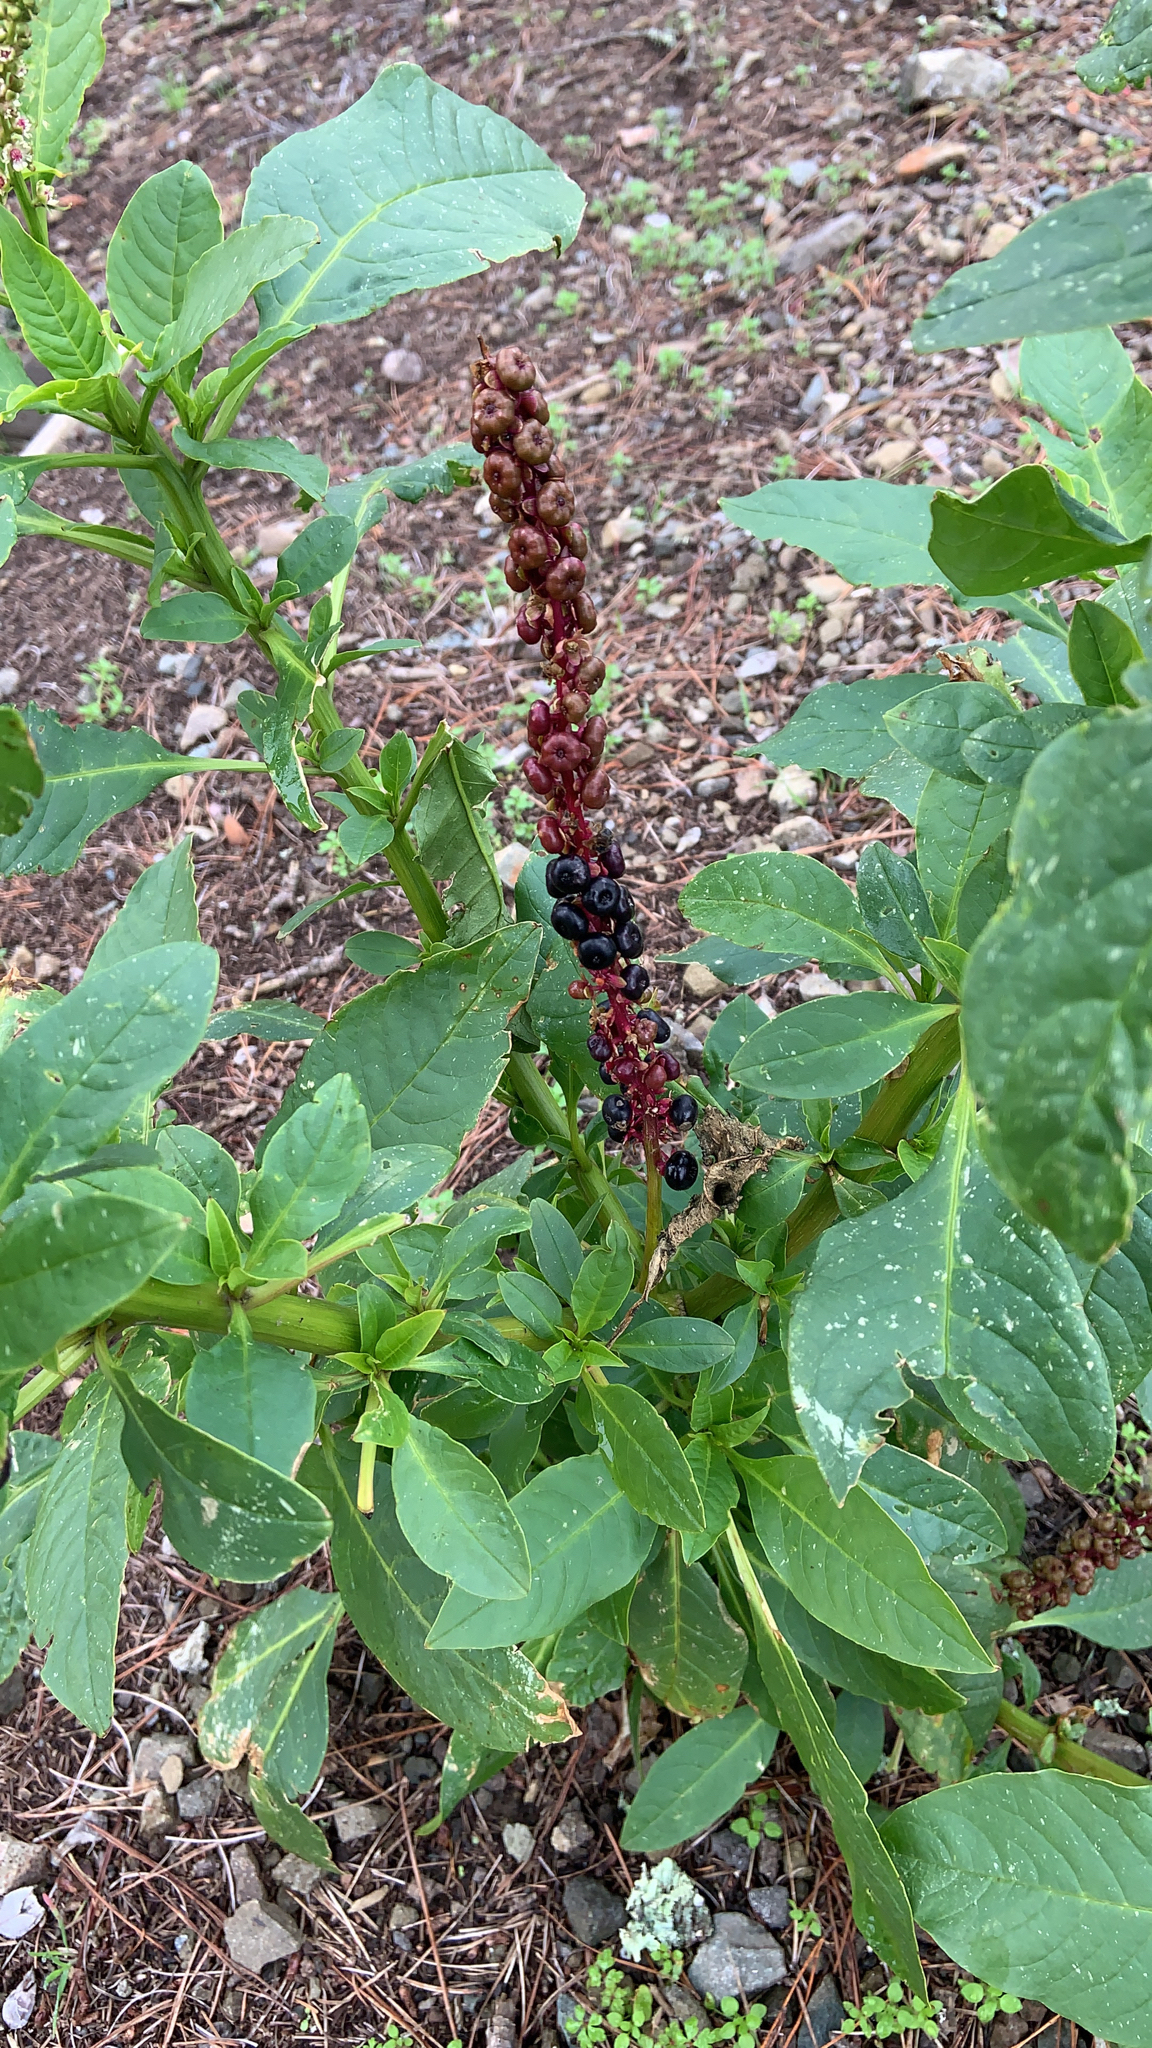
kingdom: Plantae
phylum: Tracheophyta
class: Magnoliopsida
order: Caryophyllales
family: Phytolaccaceae
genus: Phytolacca
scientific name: Phytolacca icosandra
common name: Button pokeweed
